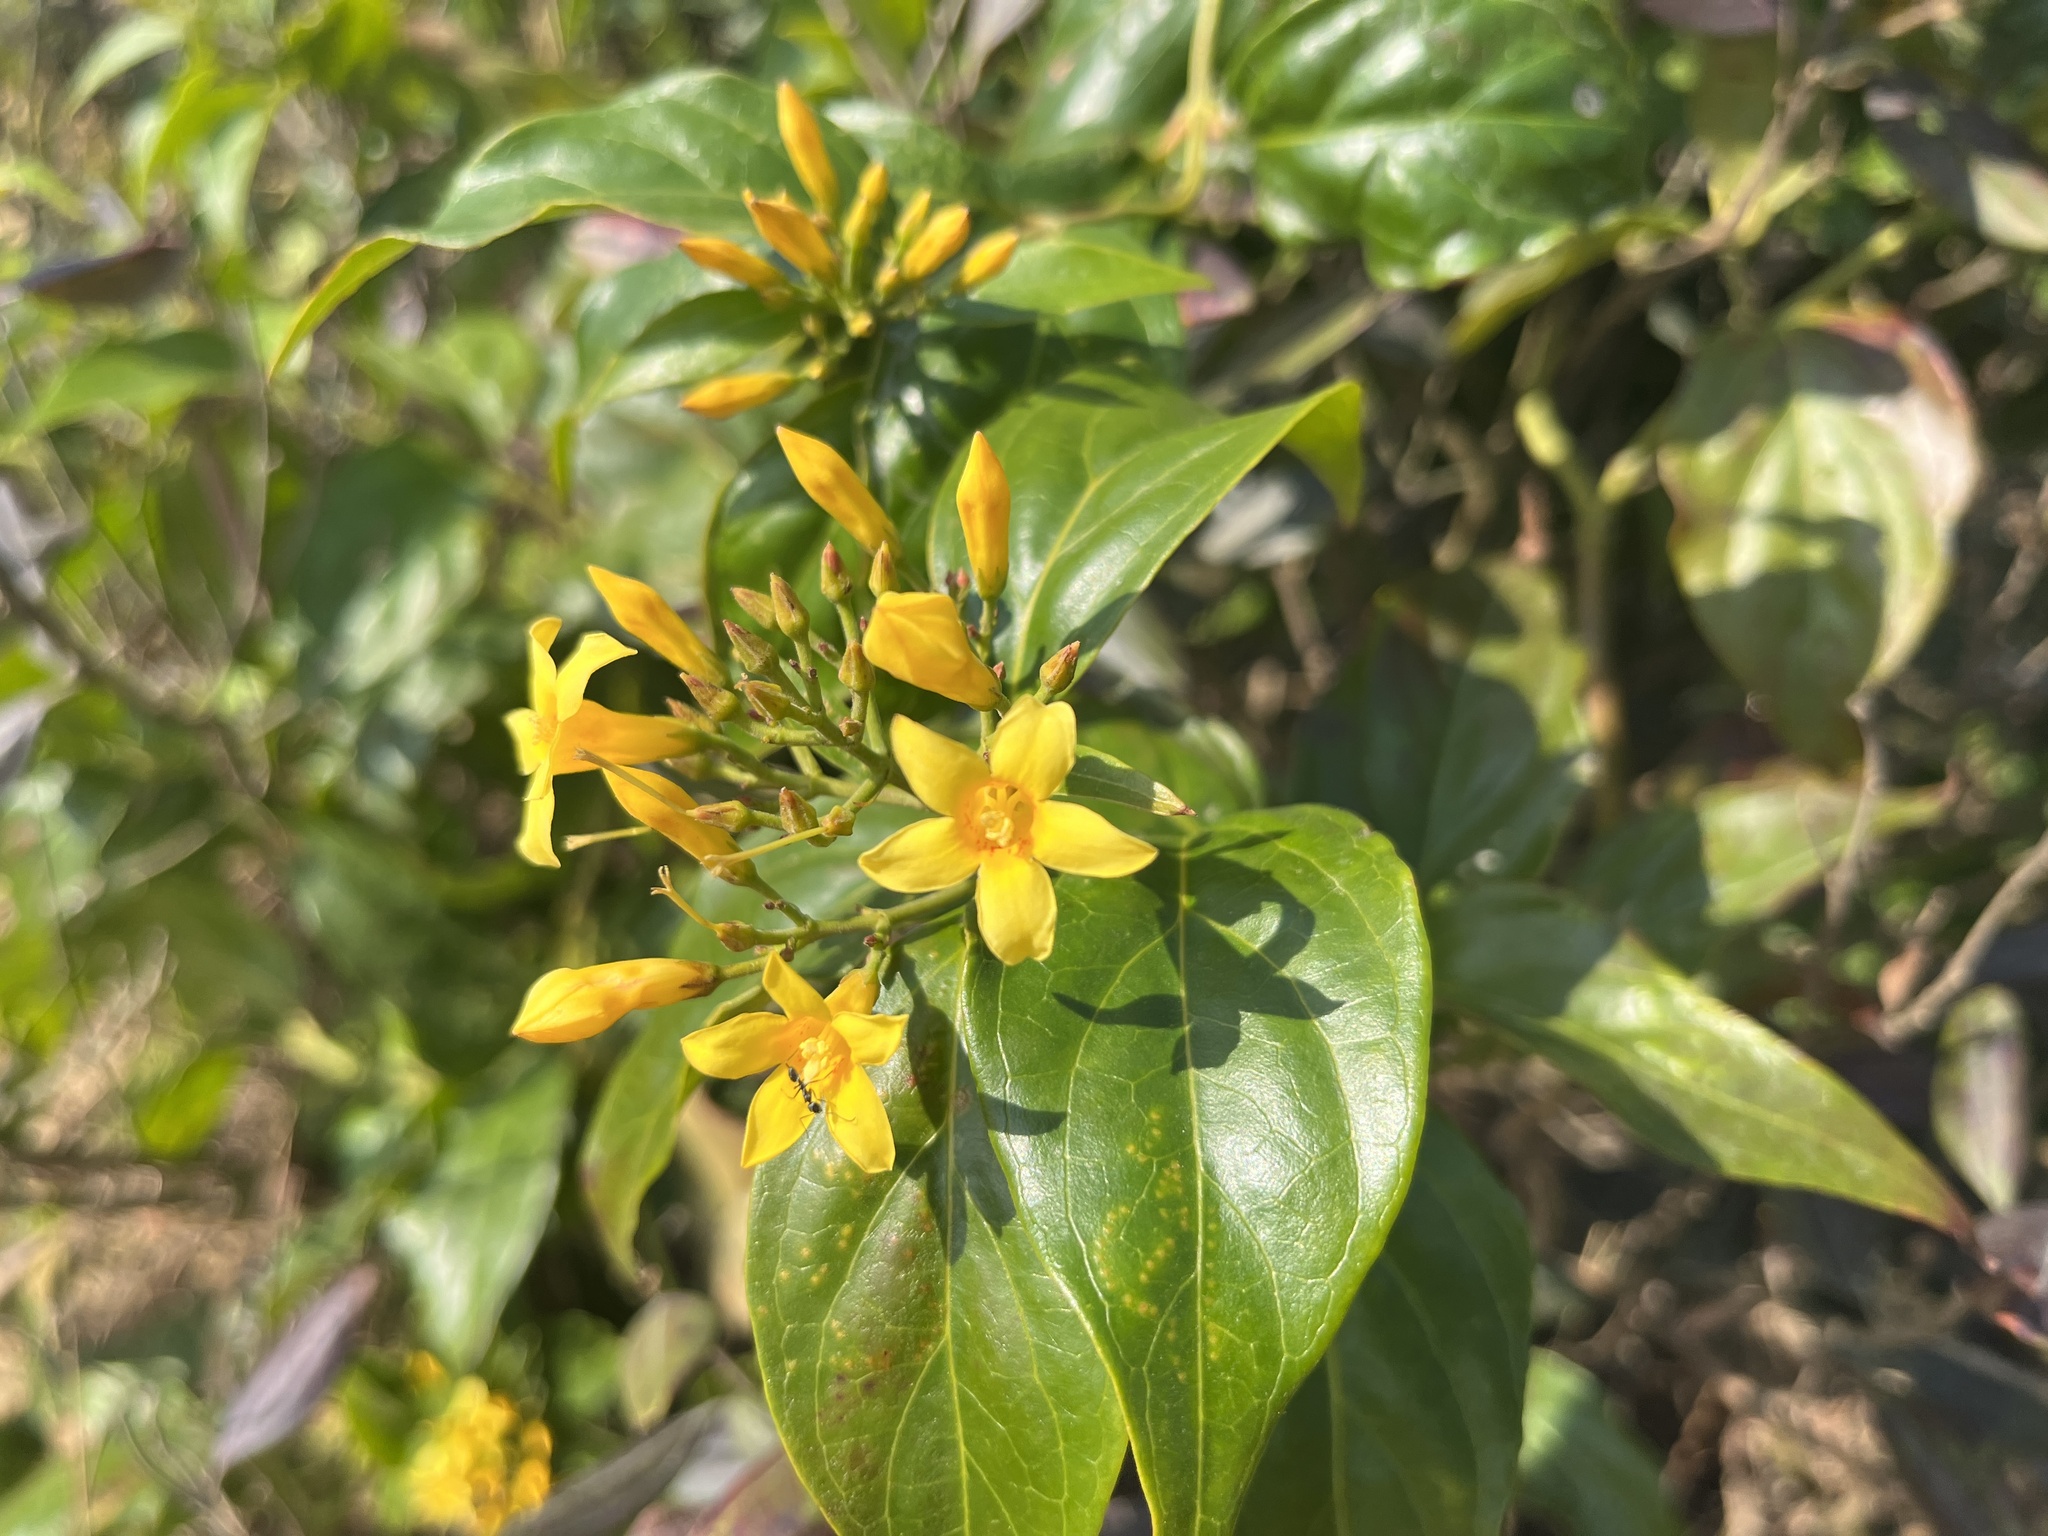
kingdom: Plantae
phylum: Tracheophyta
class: Magnoliopsida
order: Gentianales
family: Gelsemiaceae
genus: Gelsemium
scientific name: Gelsemium elegans
